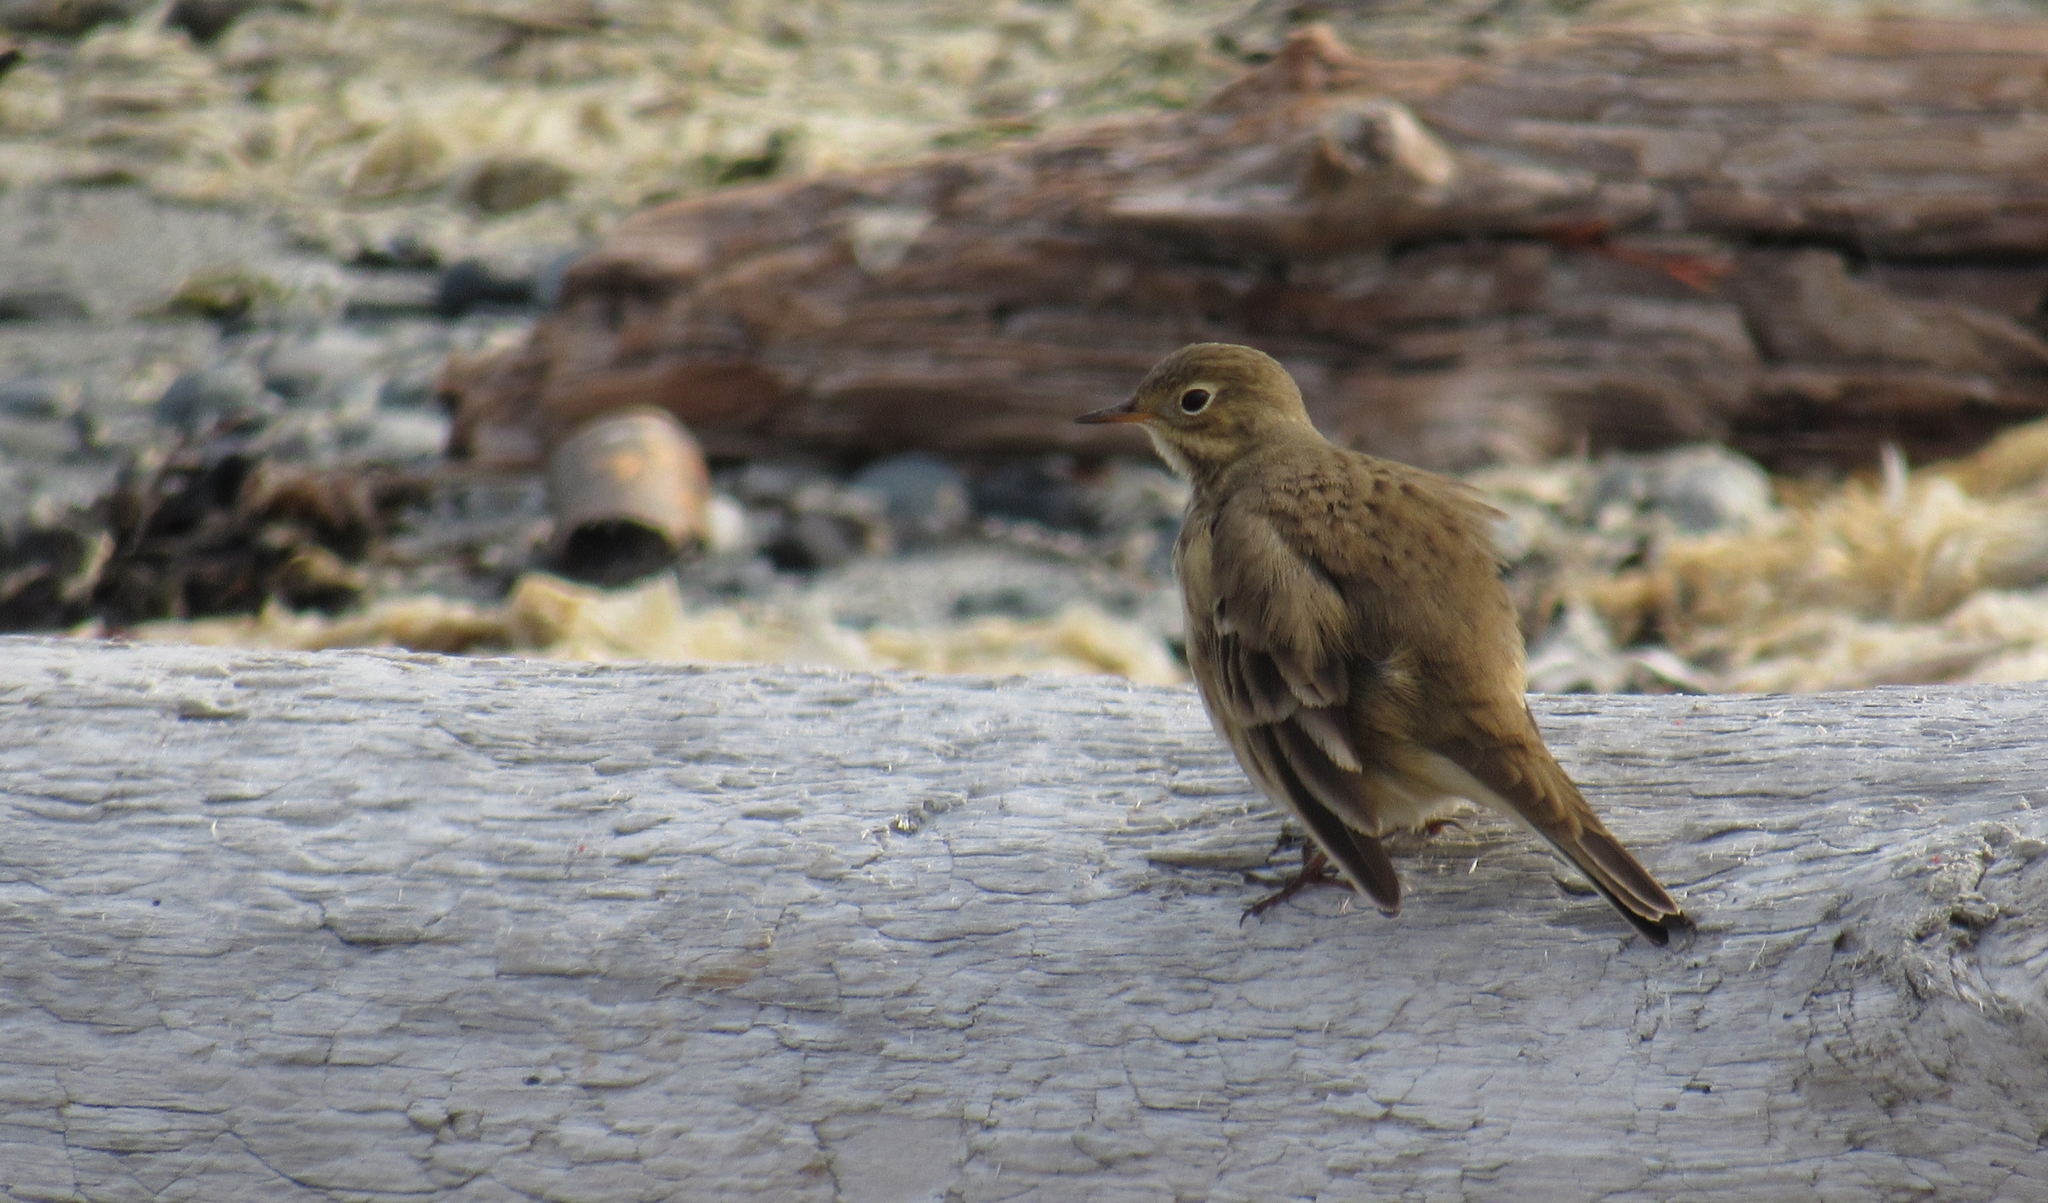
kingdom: Animalia
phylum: Chordata
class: Aves
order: Passeriformes
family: Motacillidae
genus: Anthus
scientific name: Anthus rubescens
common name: Buff-bellied pipit
